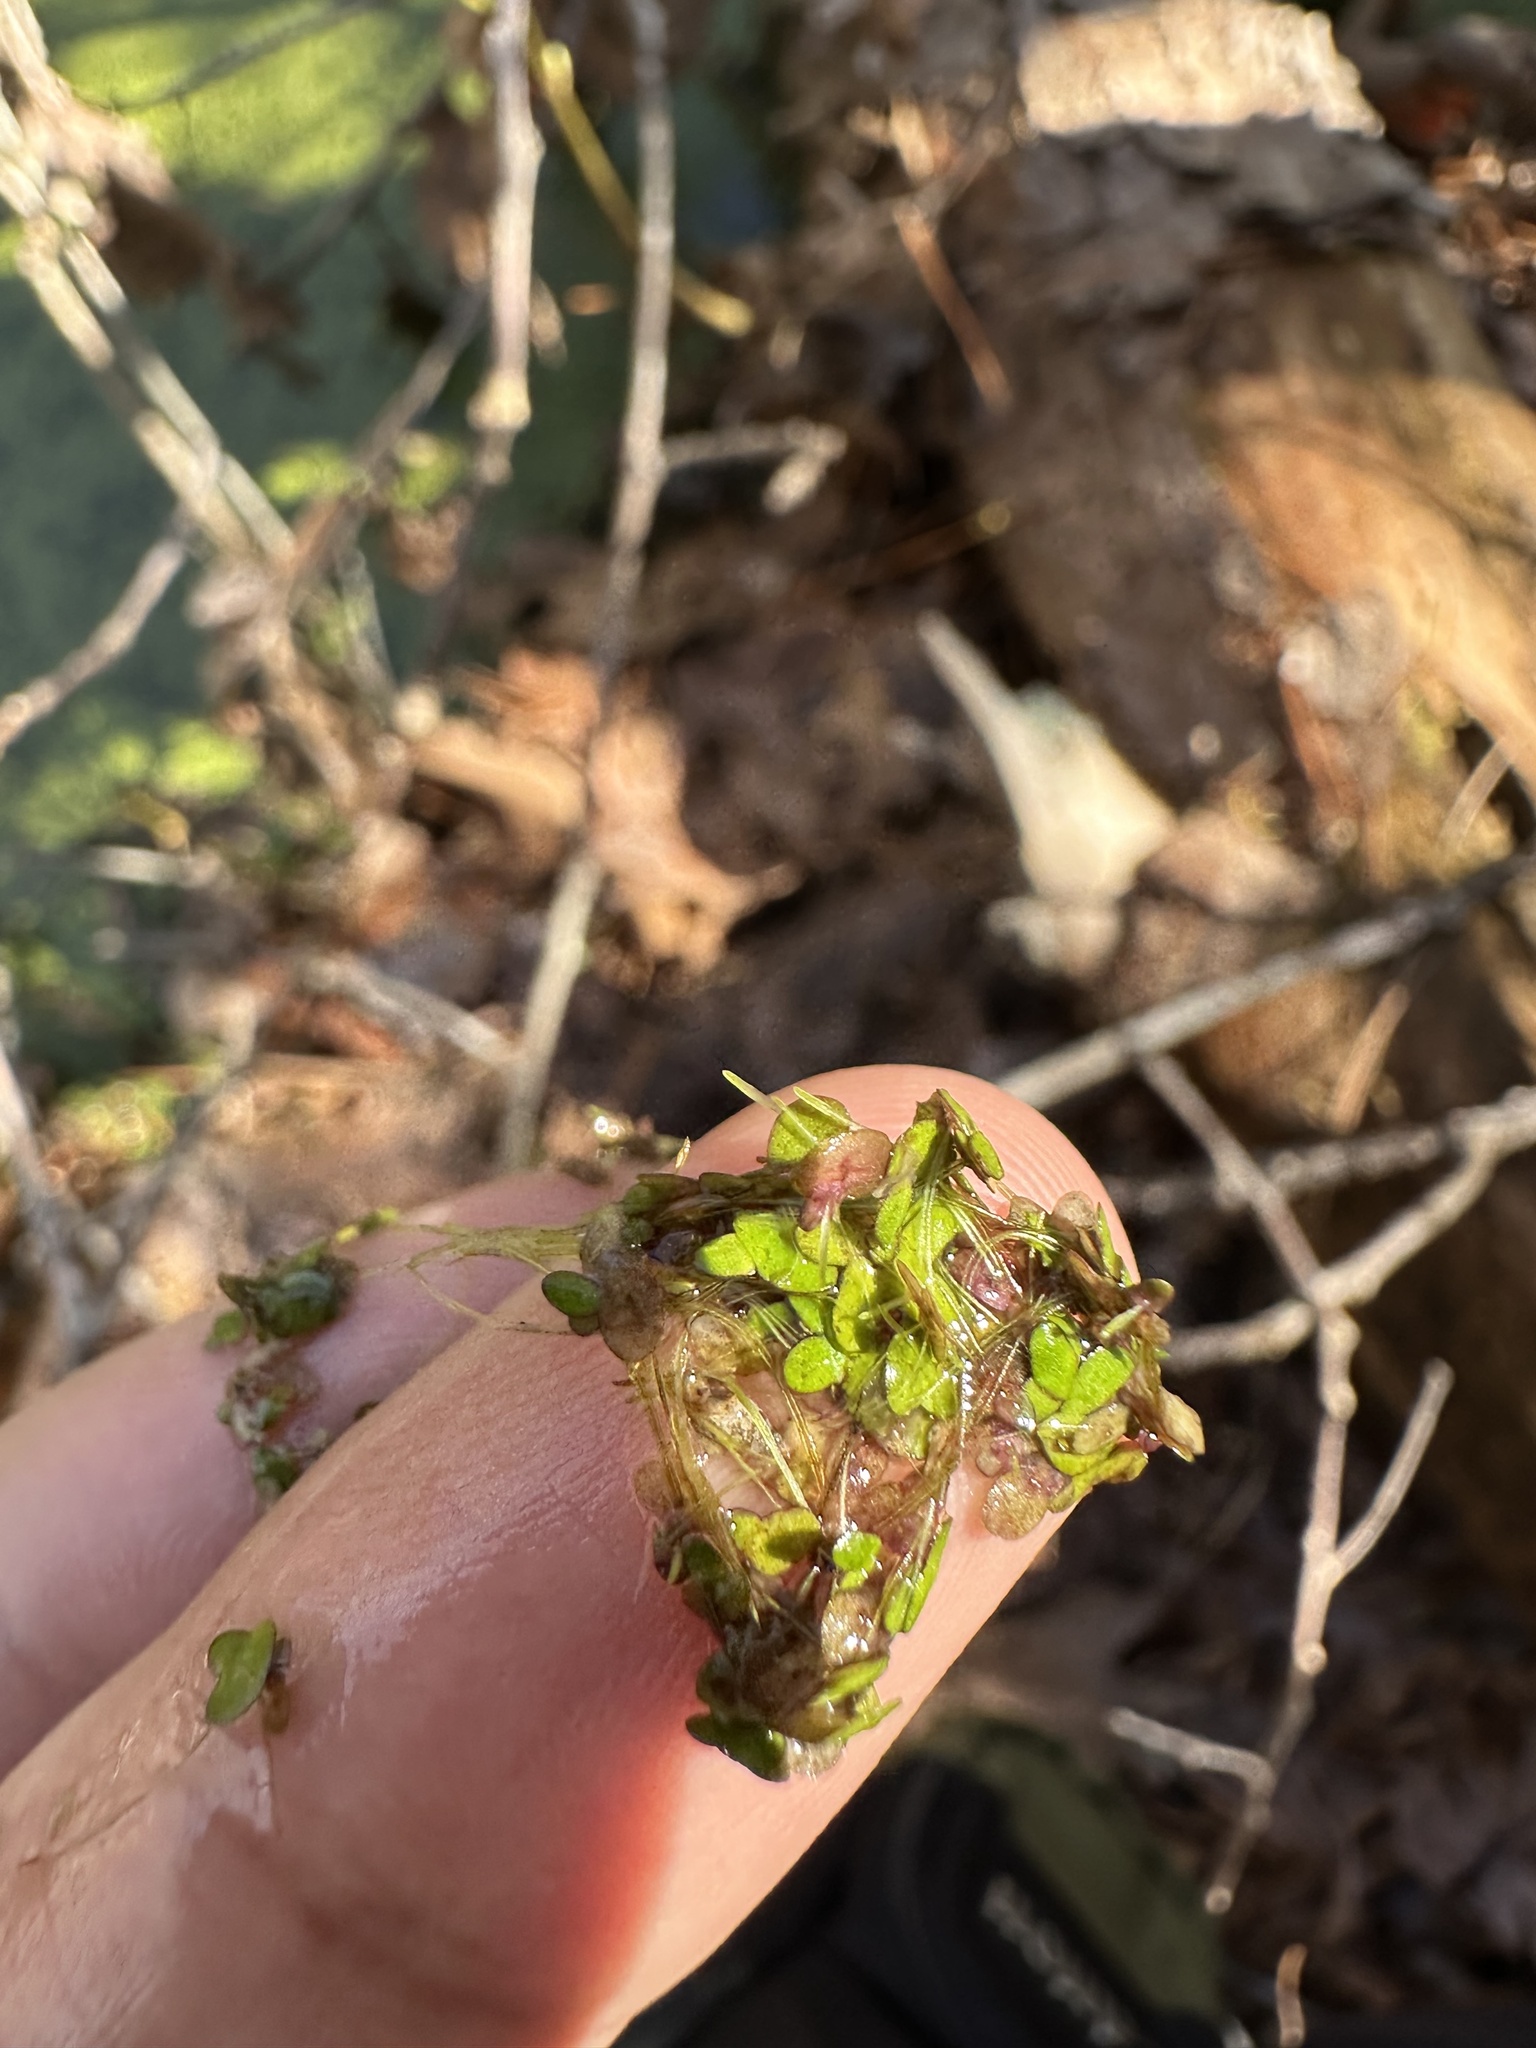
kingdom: Plantae
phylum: Tracheophyta
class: Liliopsida
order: Alismatales
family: Araceae
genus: Spirodela
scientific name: Spirodela punctata
